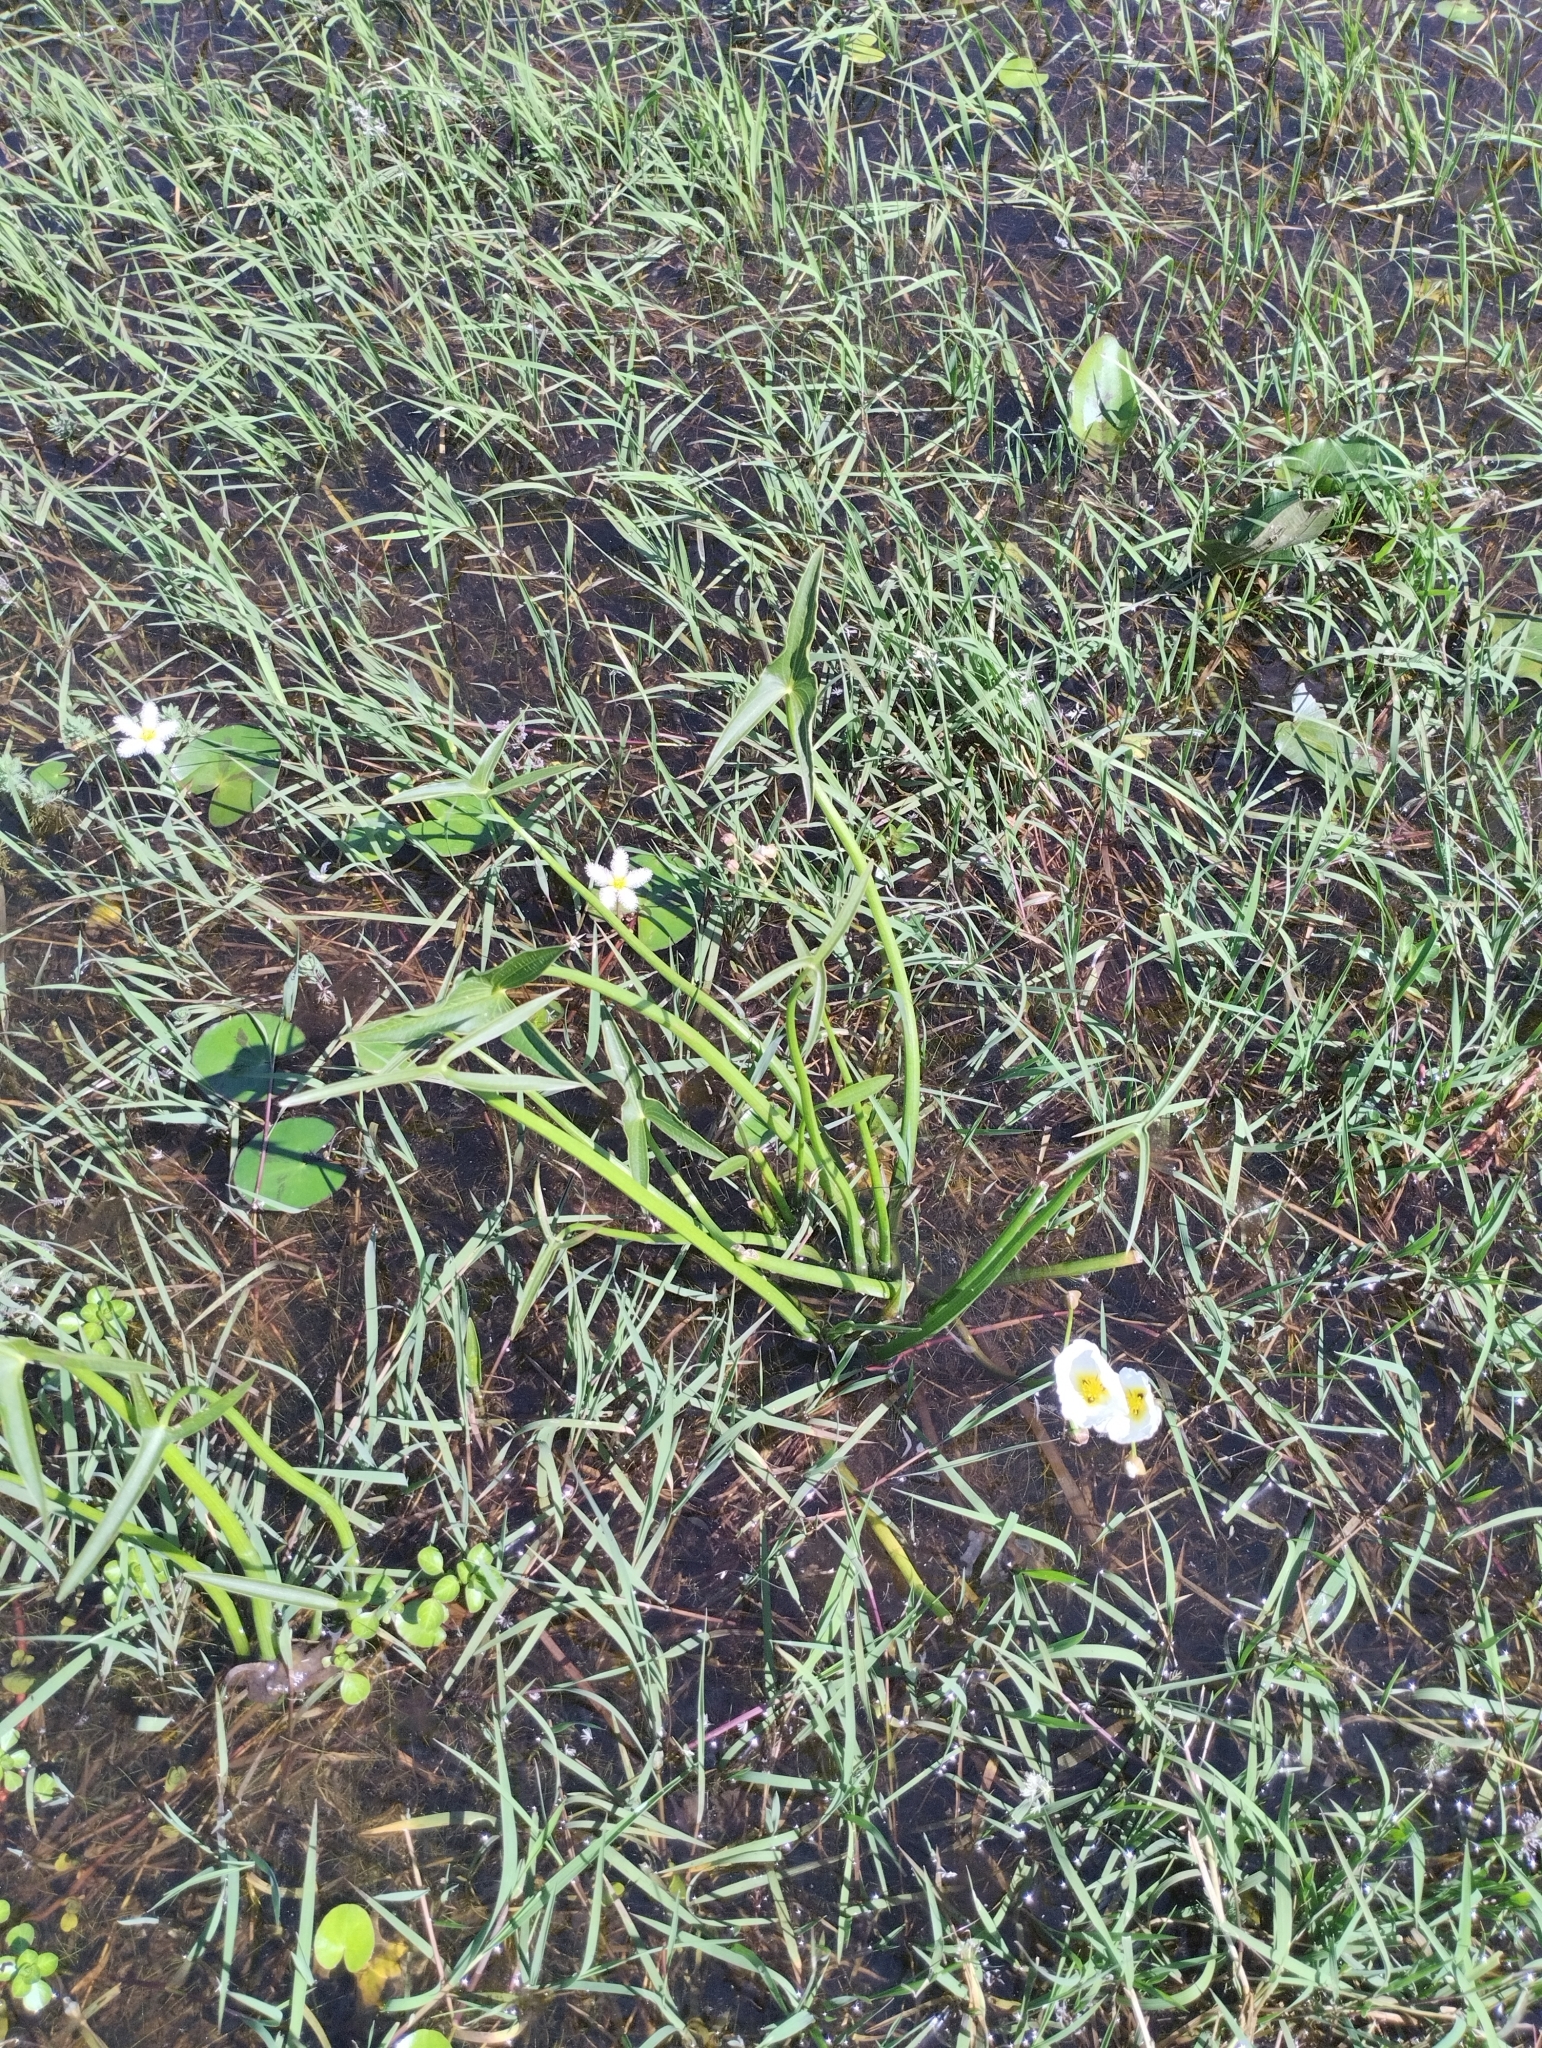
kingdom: Plantae
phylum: Tracheophyta
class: Liliopsida
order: Alismatales
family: Alismataceae
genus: Sagittaria
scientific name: Sagittaria montevidensis
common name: Giant arrowhead
